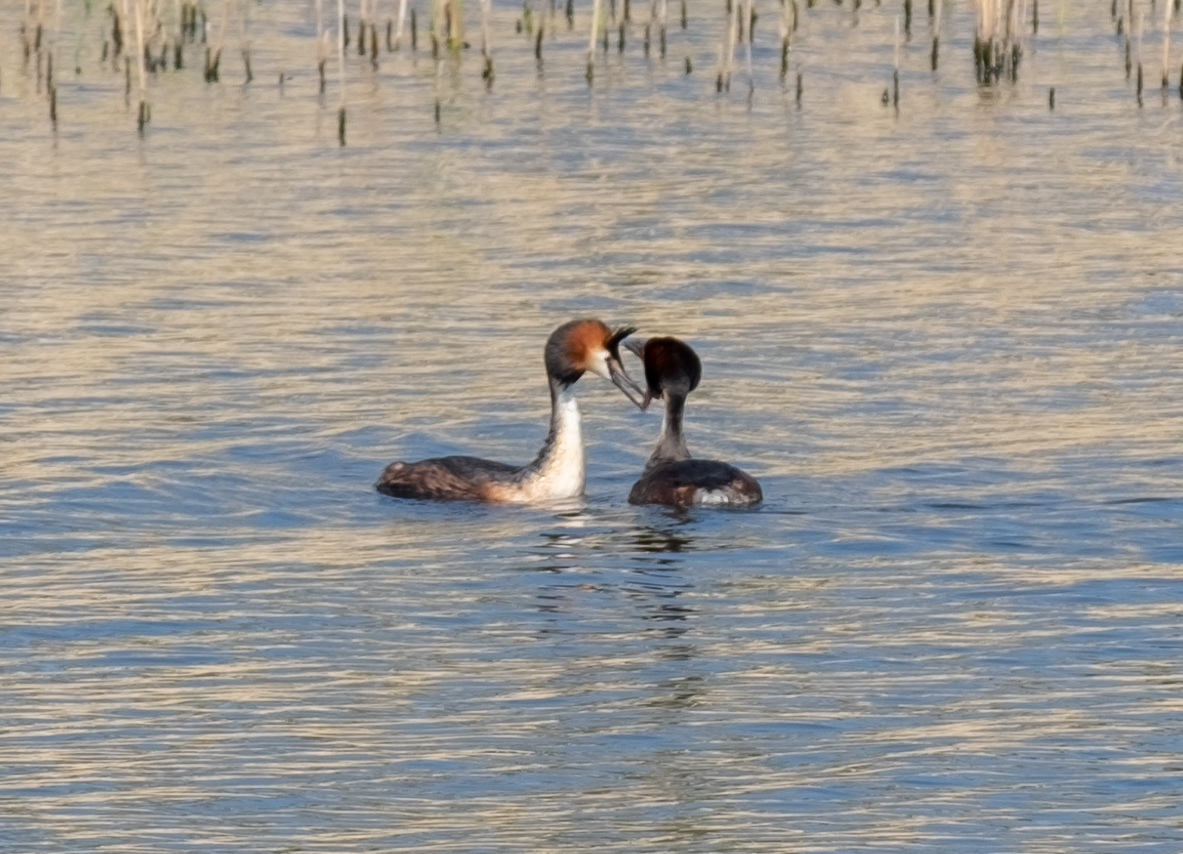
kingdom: Animalia
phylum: Chordata
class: Aves
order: Podicipediformes
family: Podicipedidae
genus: Podiceps
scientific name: Podiceps cristatus
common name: Great crested grebe
